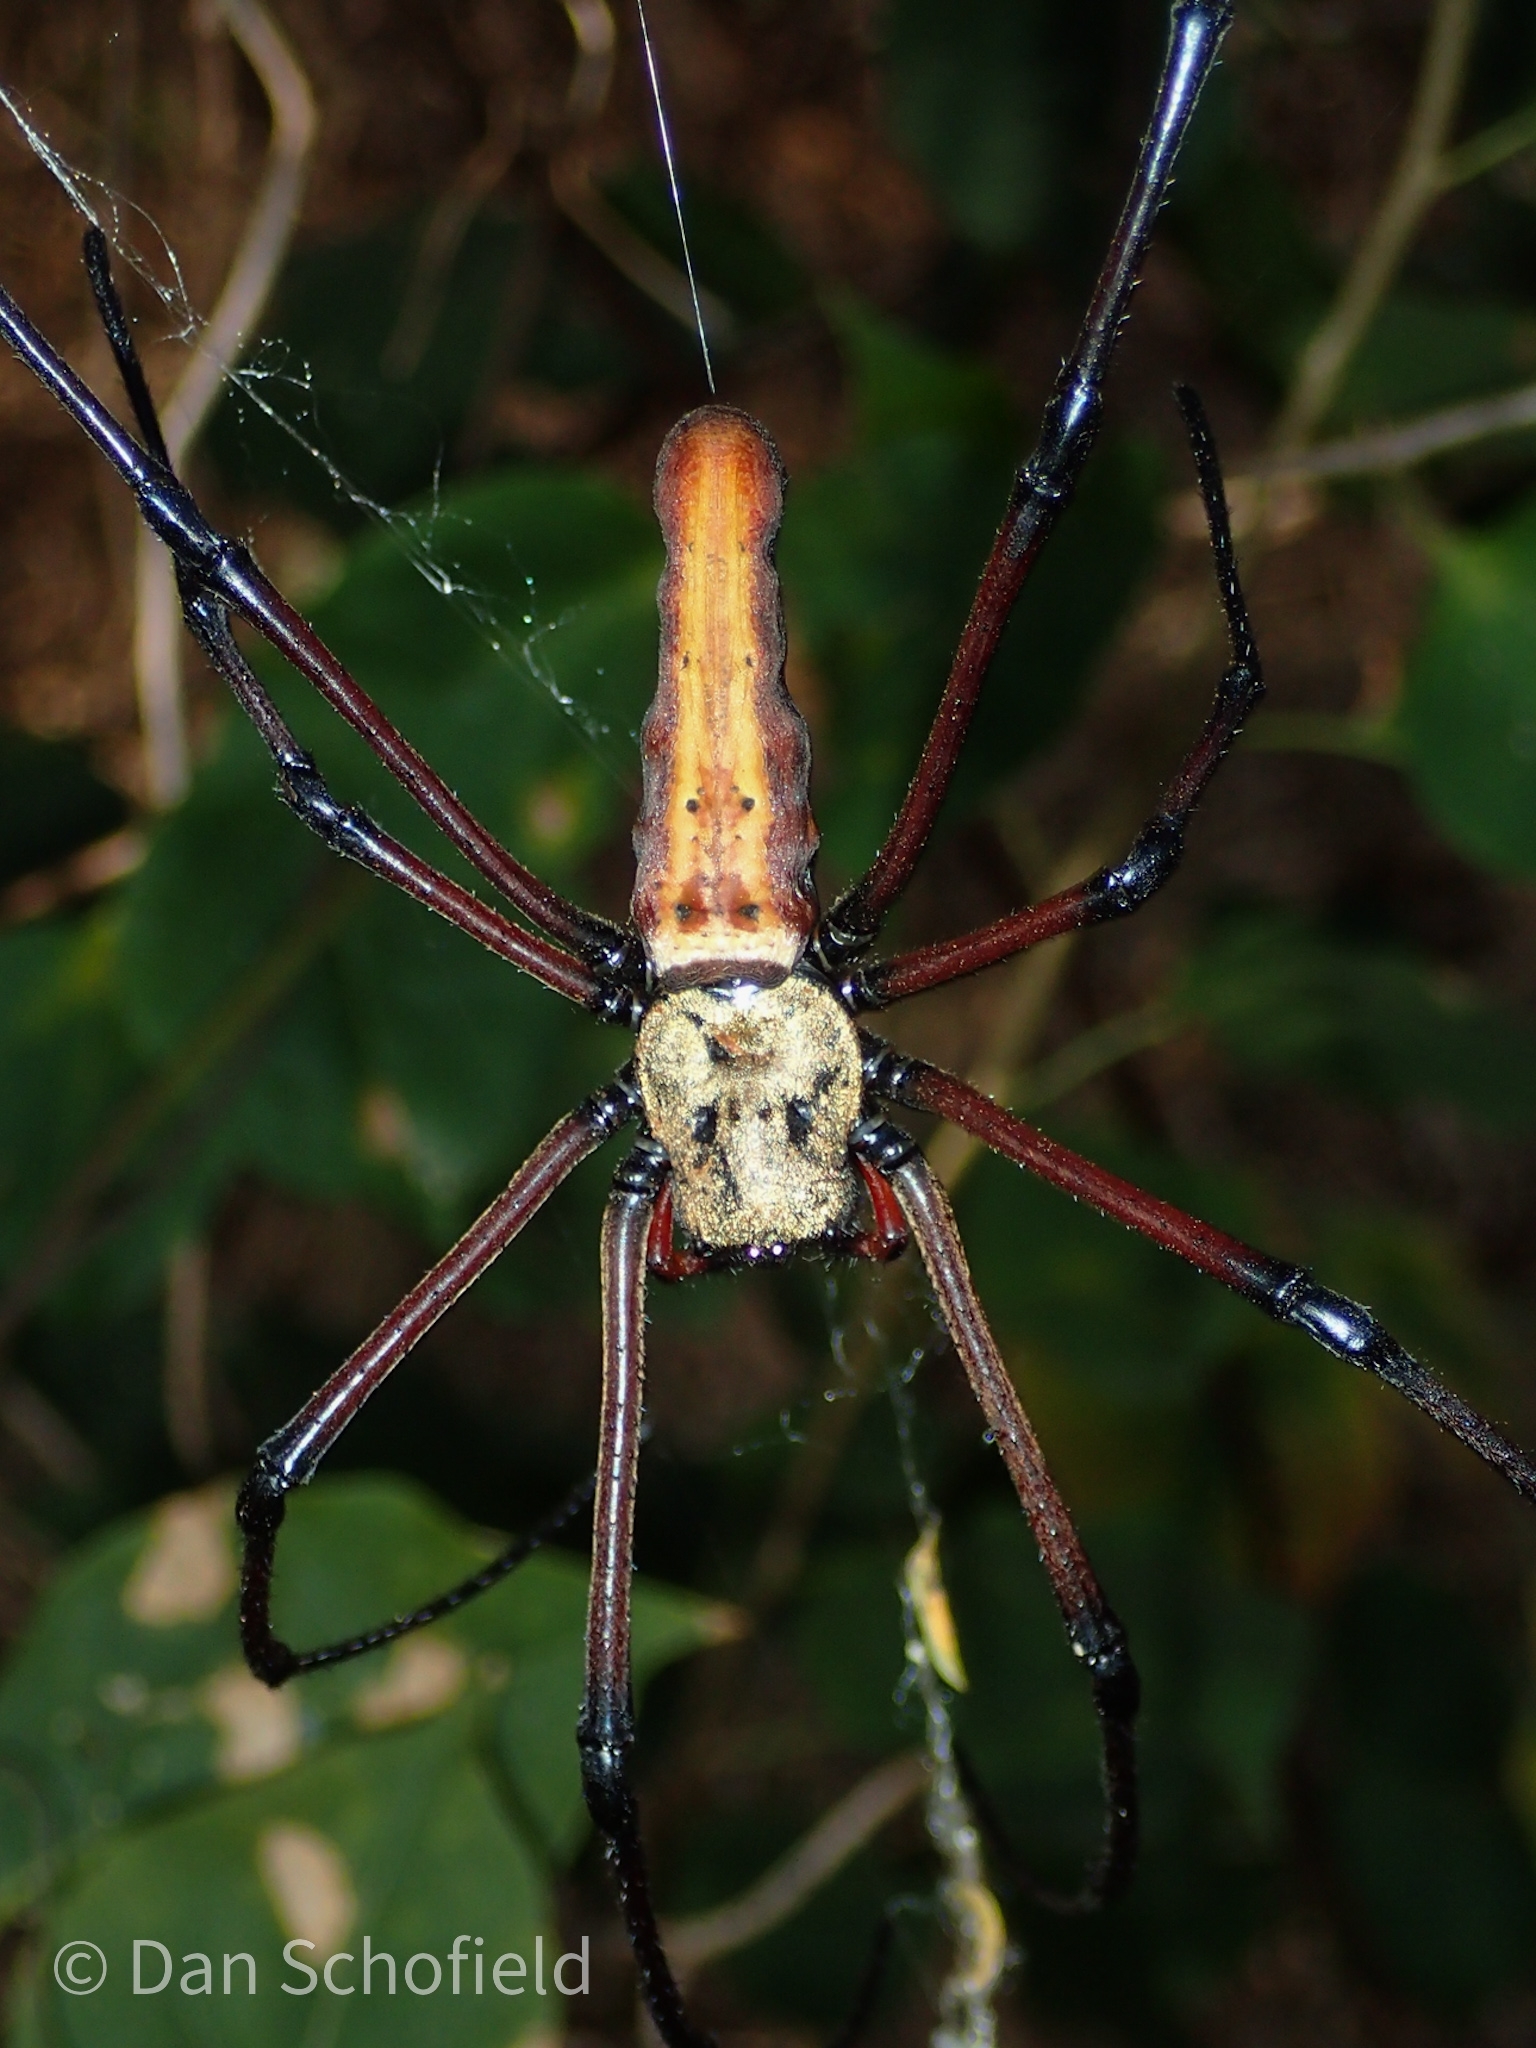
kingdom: Animalia
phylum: Arthropoda
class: Arachnida
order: Araneae
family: Araneidae
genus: Nephila
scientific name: Nephila pilipes
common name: Giant golden orb weaver
